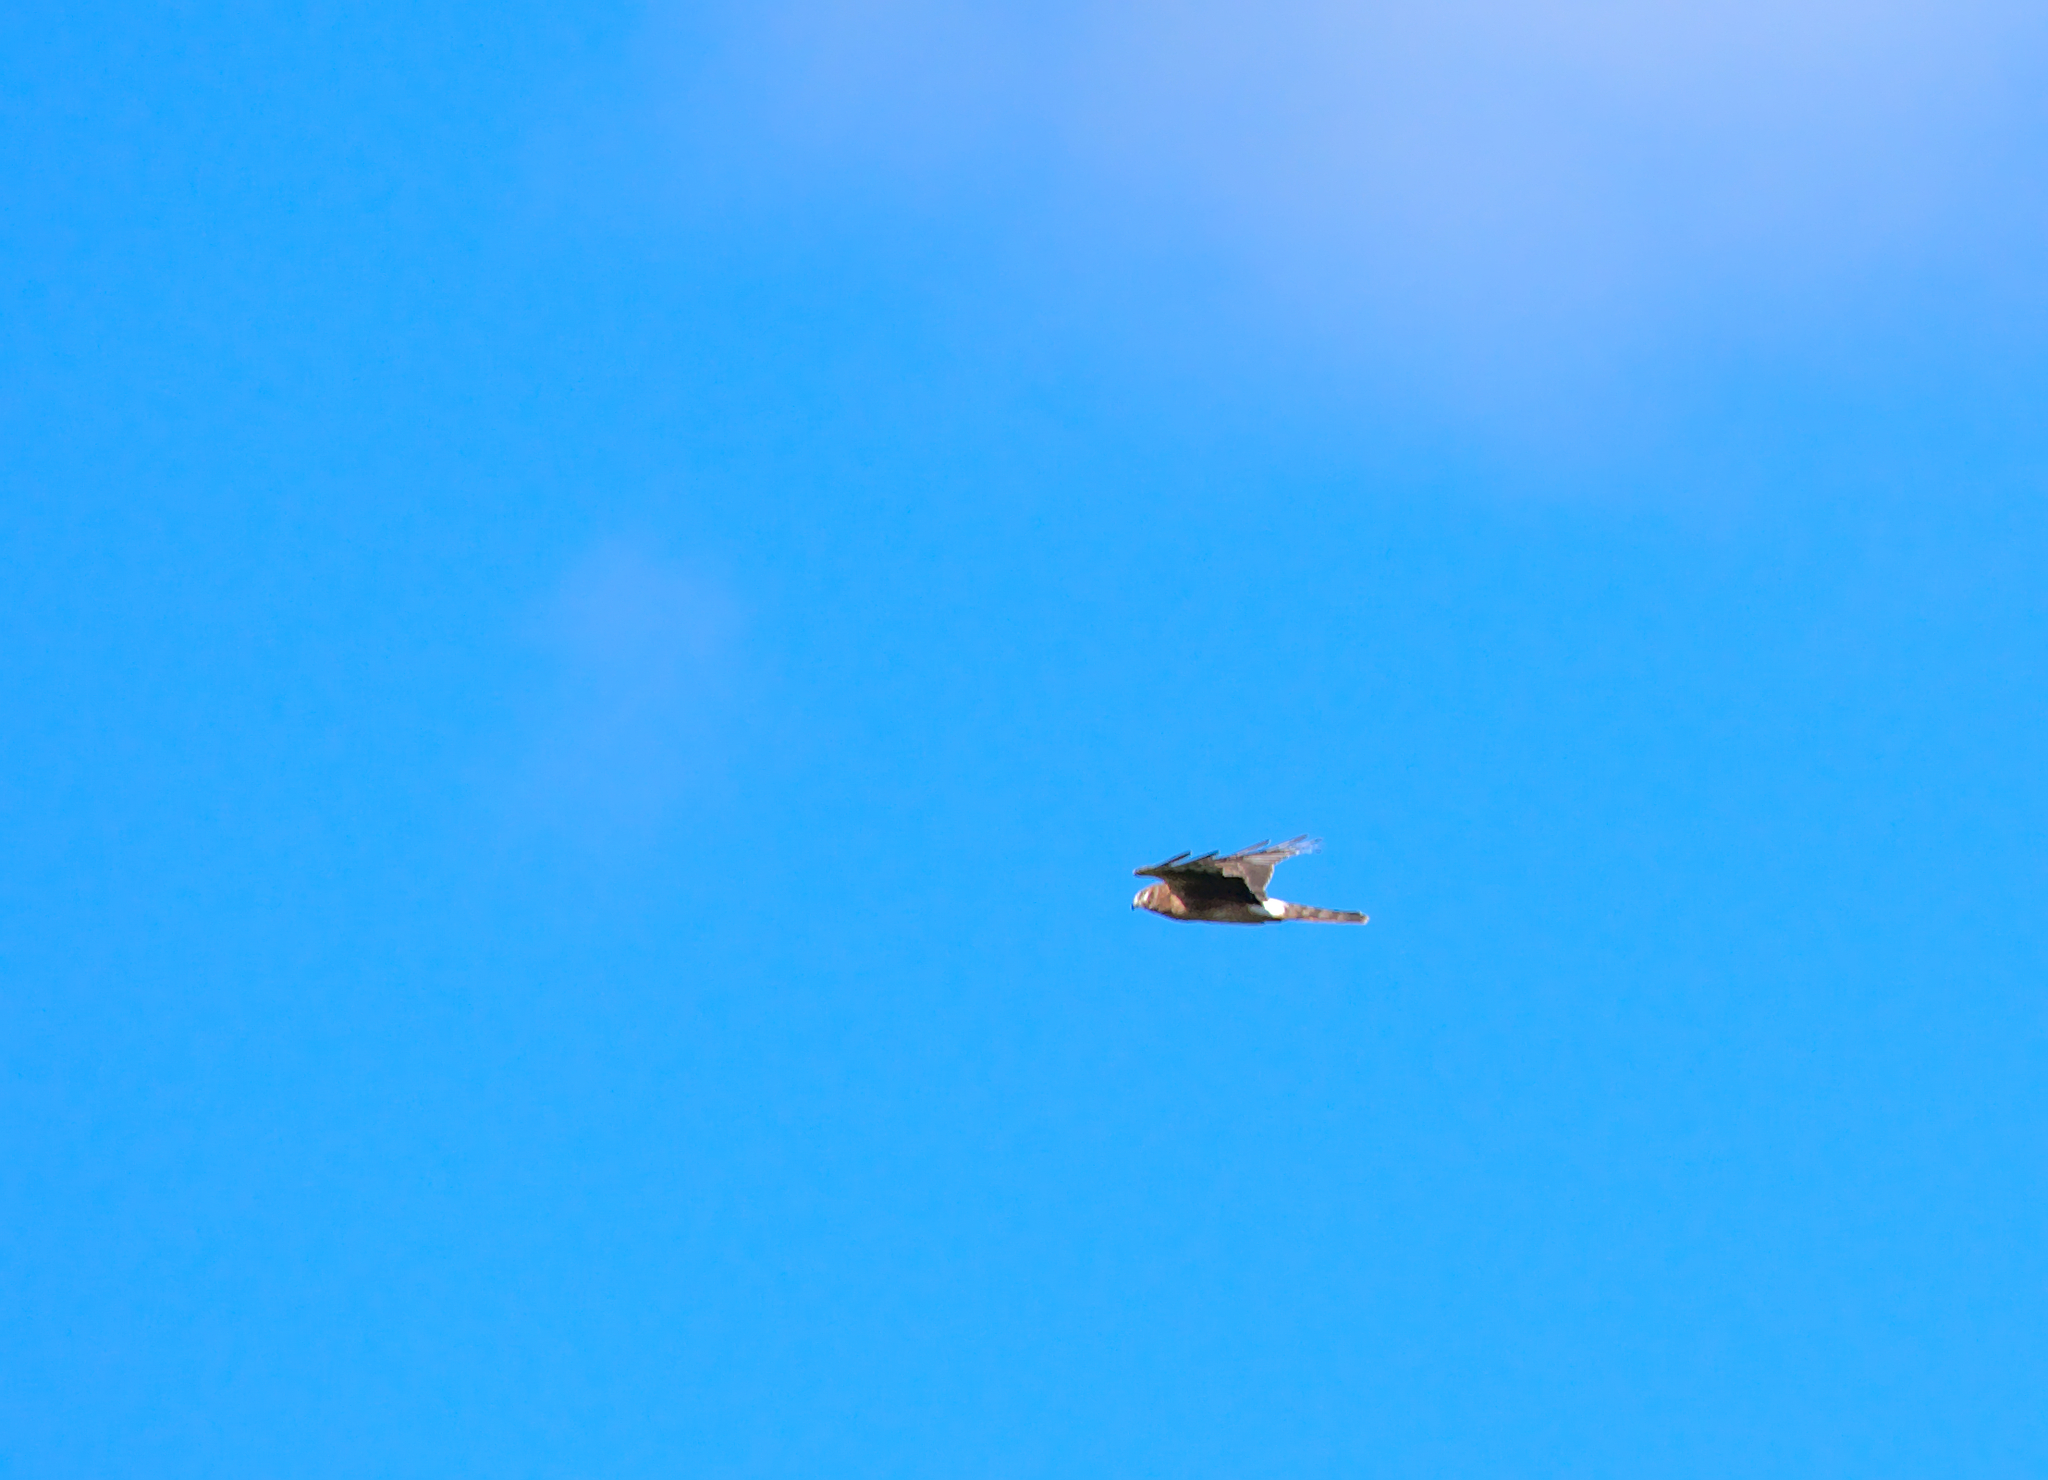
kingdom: Animalia
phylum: Chordata
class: Aves
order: Accipitriformes
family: Accipitridae
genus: Circus
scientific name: Circus cyaneus
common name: Hen harrier
